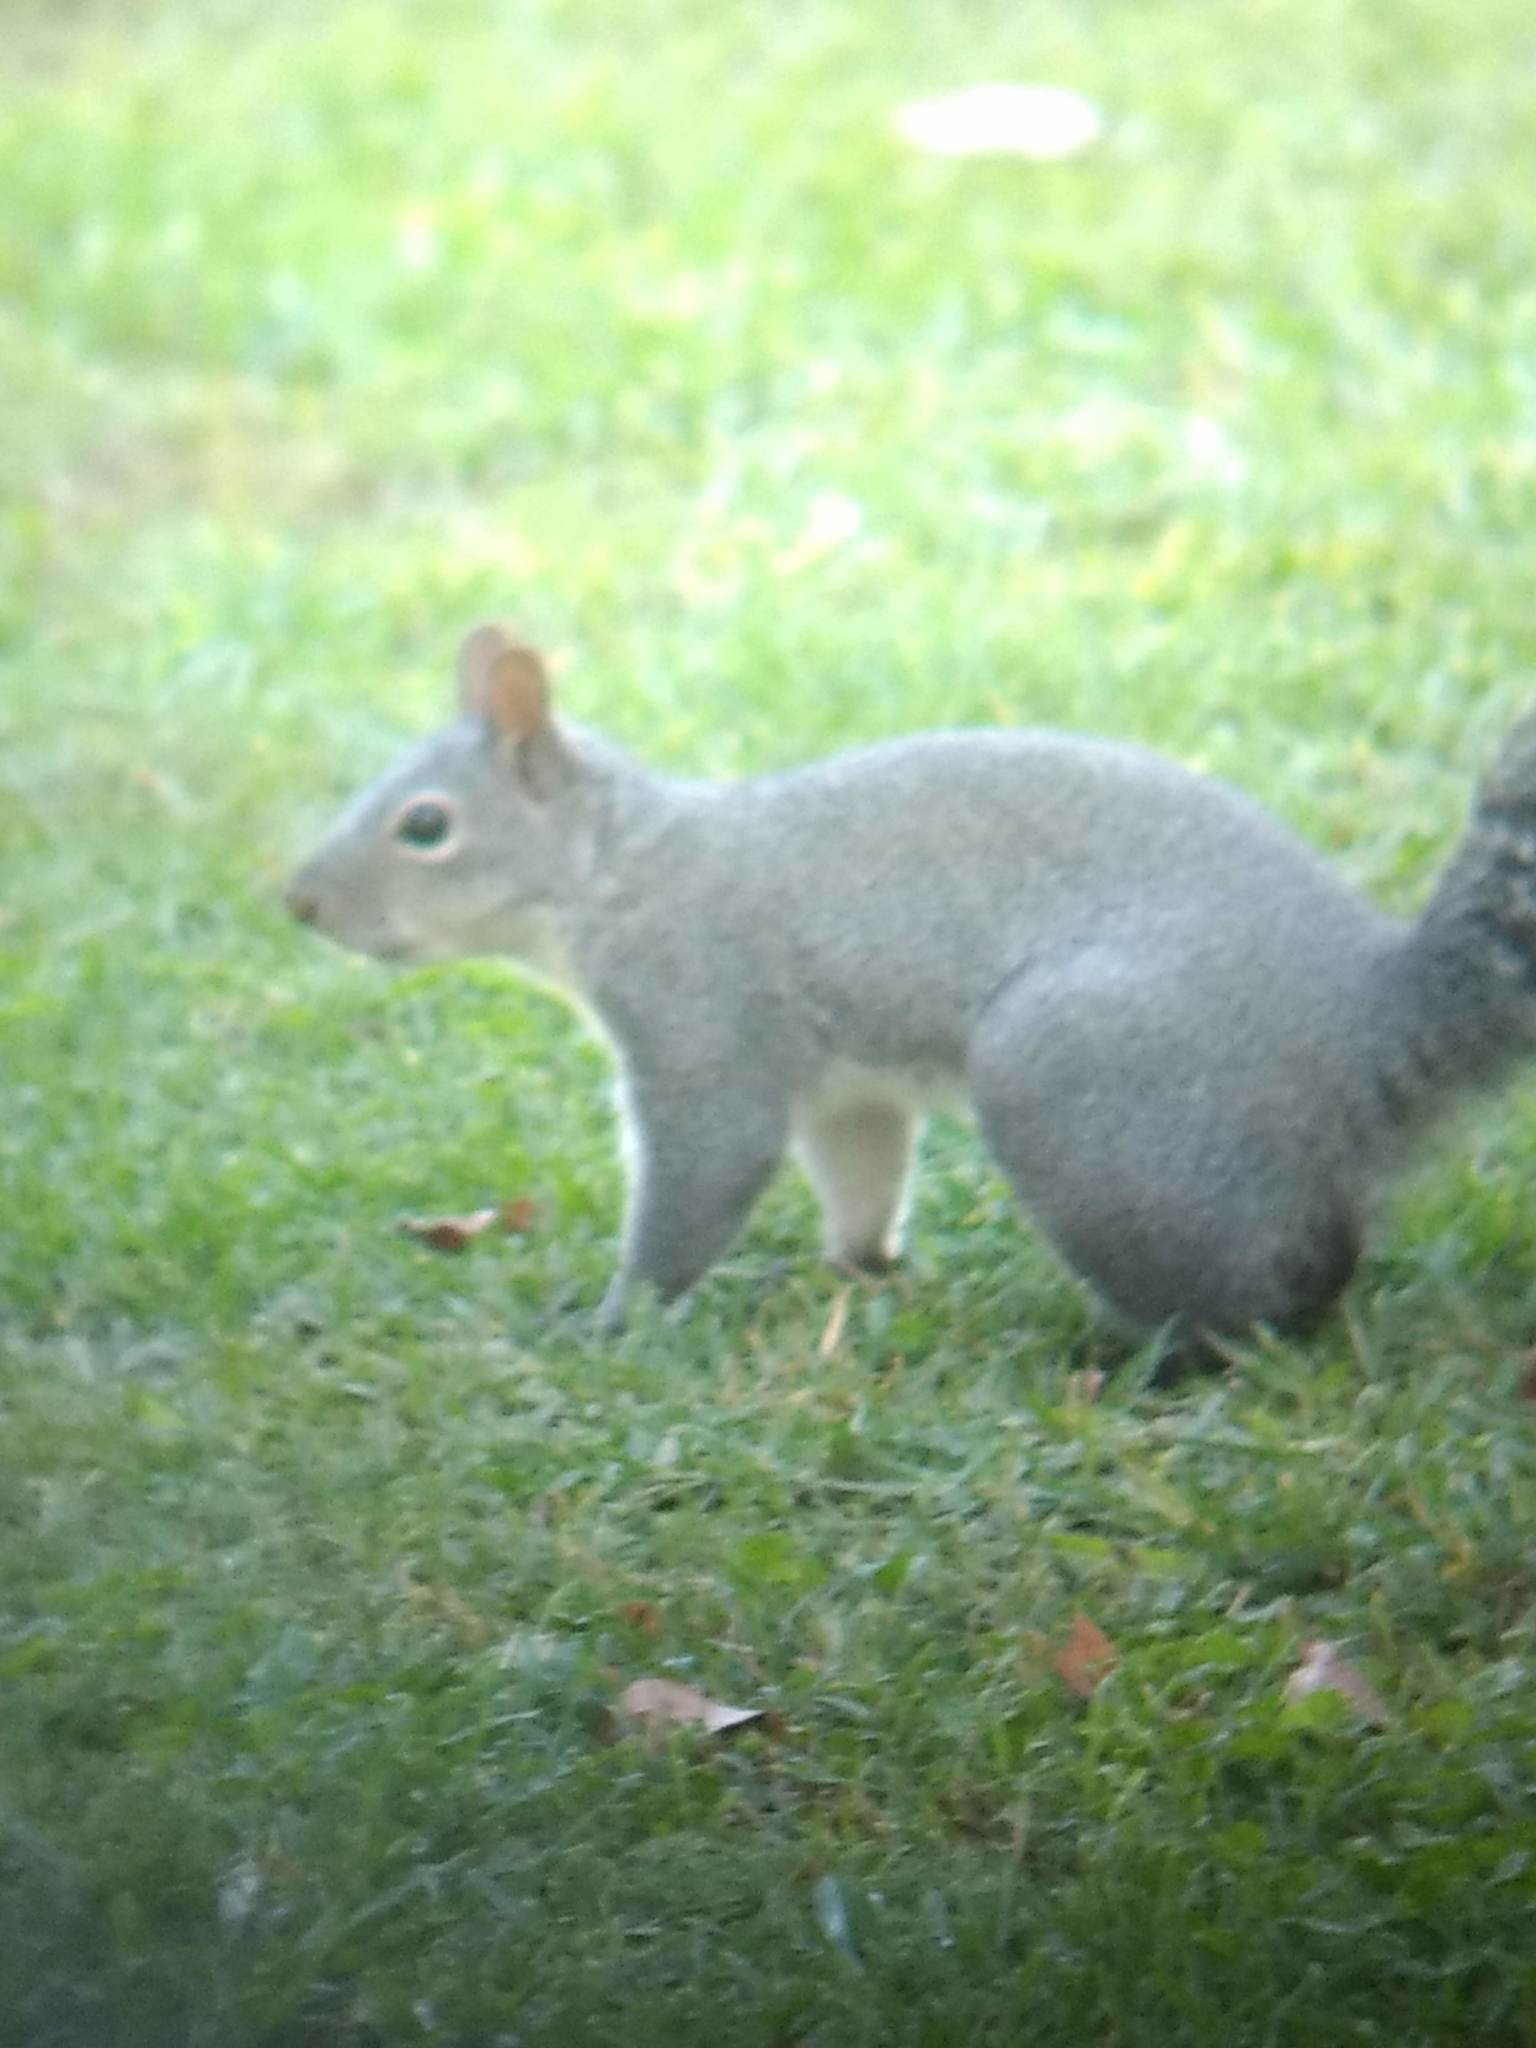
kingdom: Animalia
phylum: Chordata
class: Mammalia
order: Rodentia
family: Sciuridae
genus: Sciurus
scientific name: Sciurus griseus
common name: Western gray squirrel
